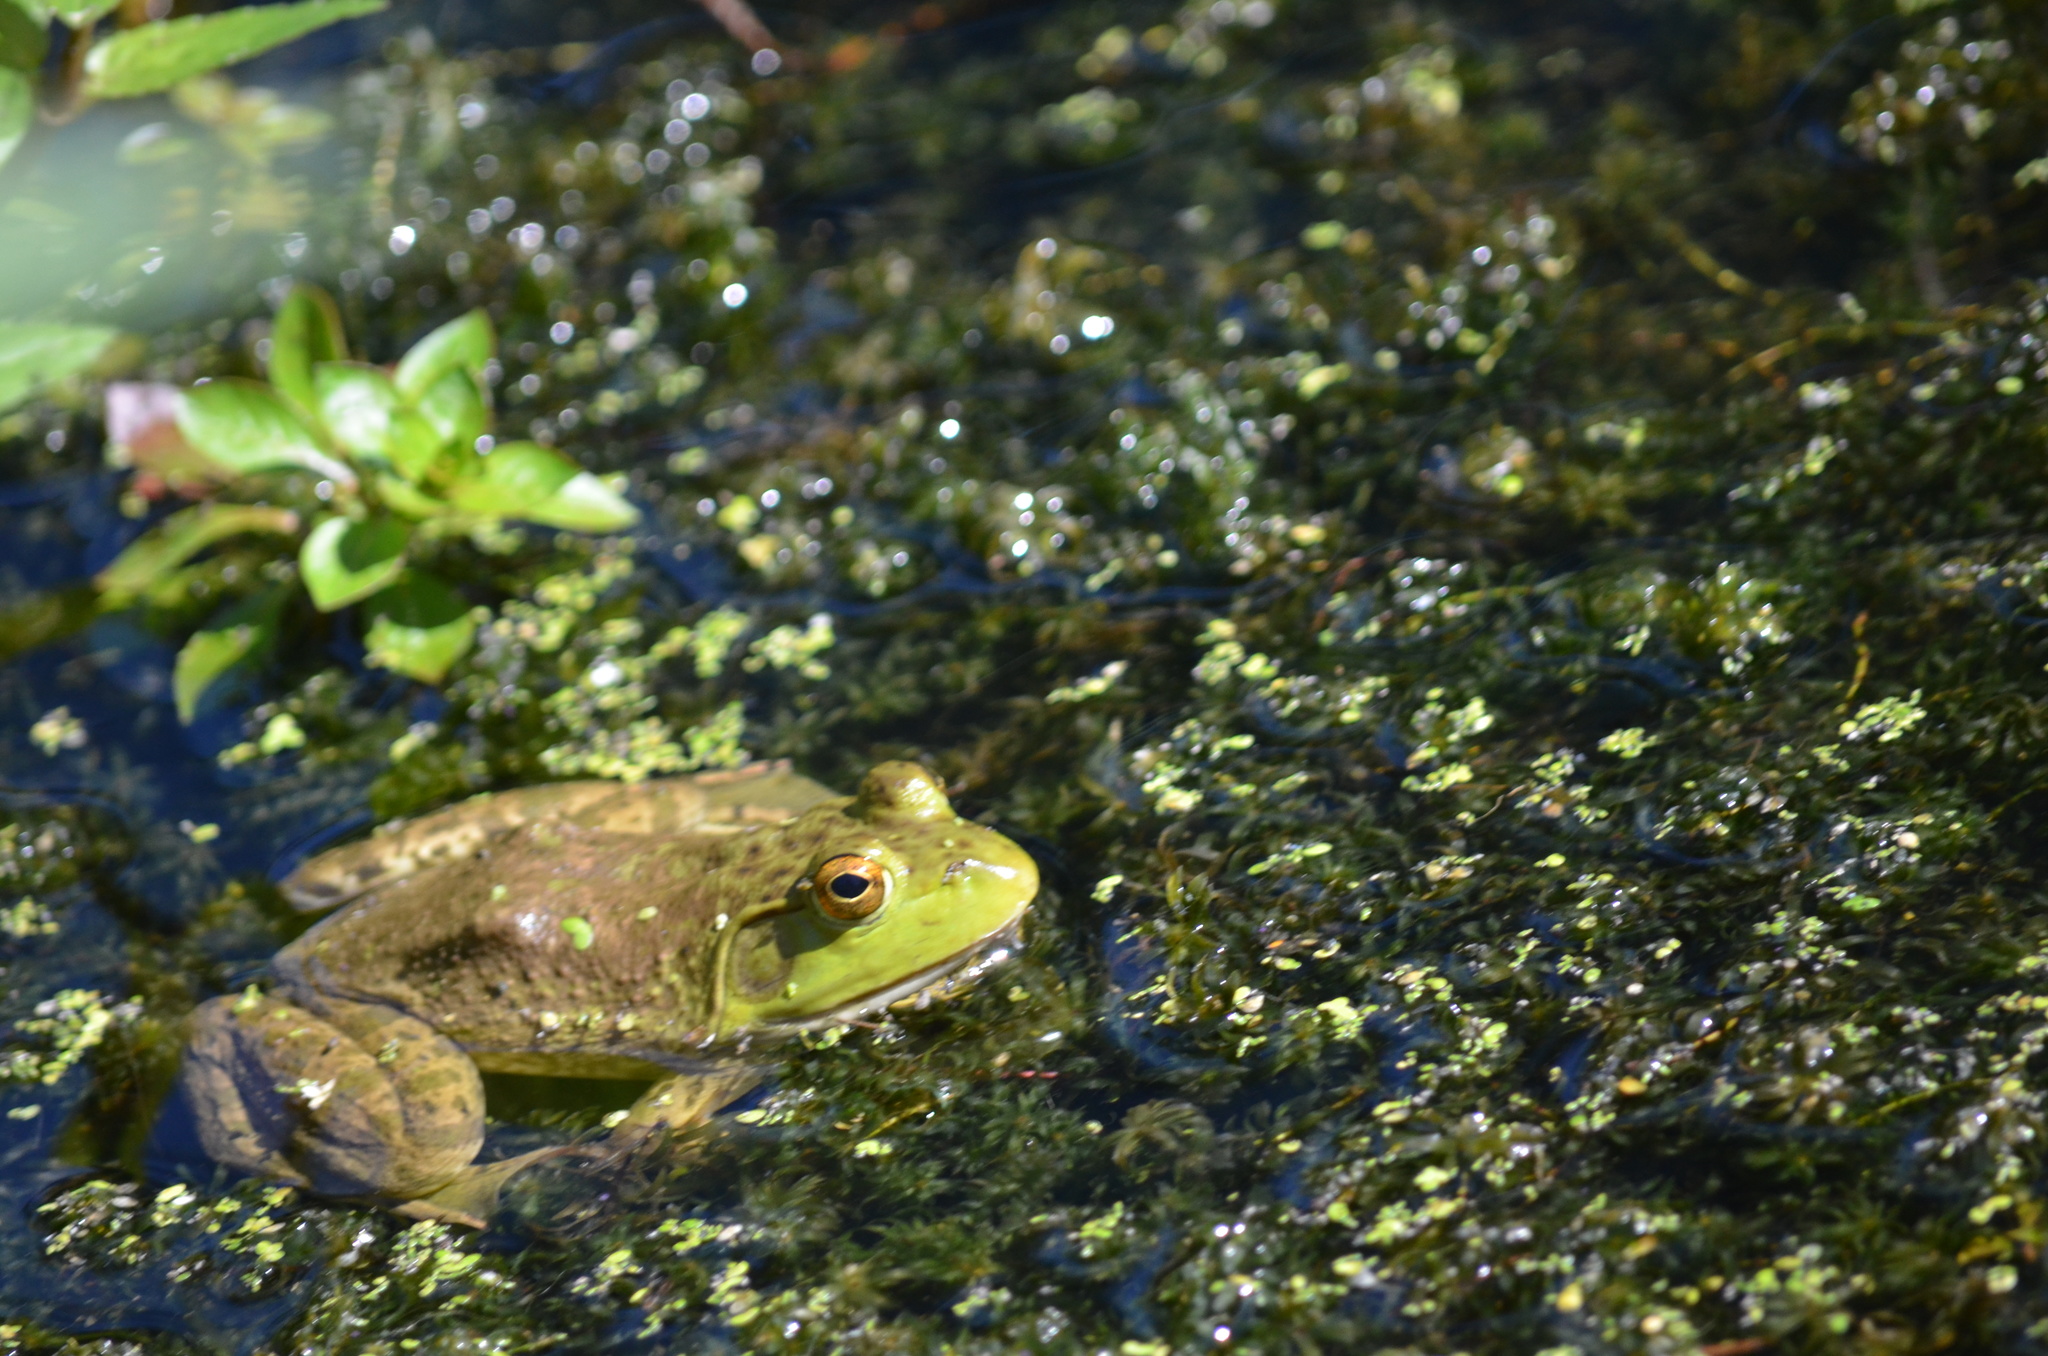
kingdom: Animalia
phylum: Chordata
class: Amphibia
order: Anura
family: Ranidae
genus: Lithobates
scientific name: Lithobates catesbeianus
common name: American bullfrog
